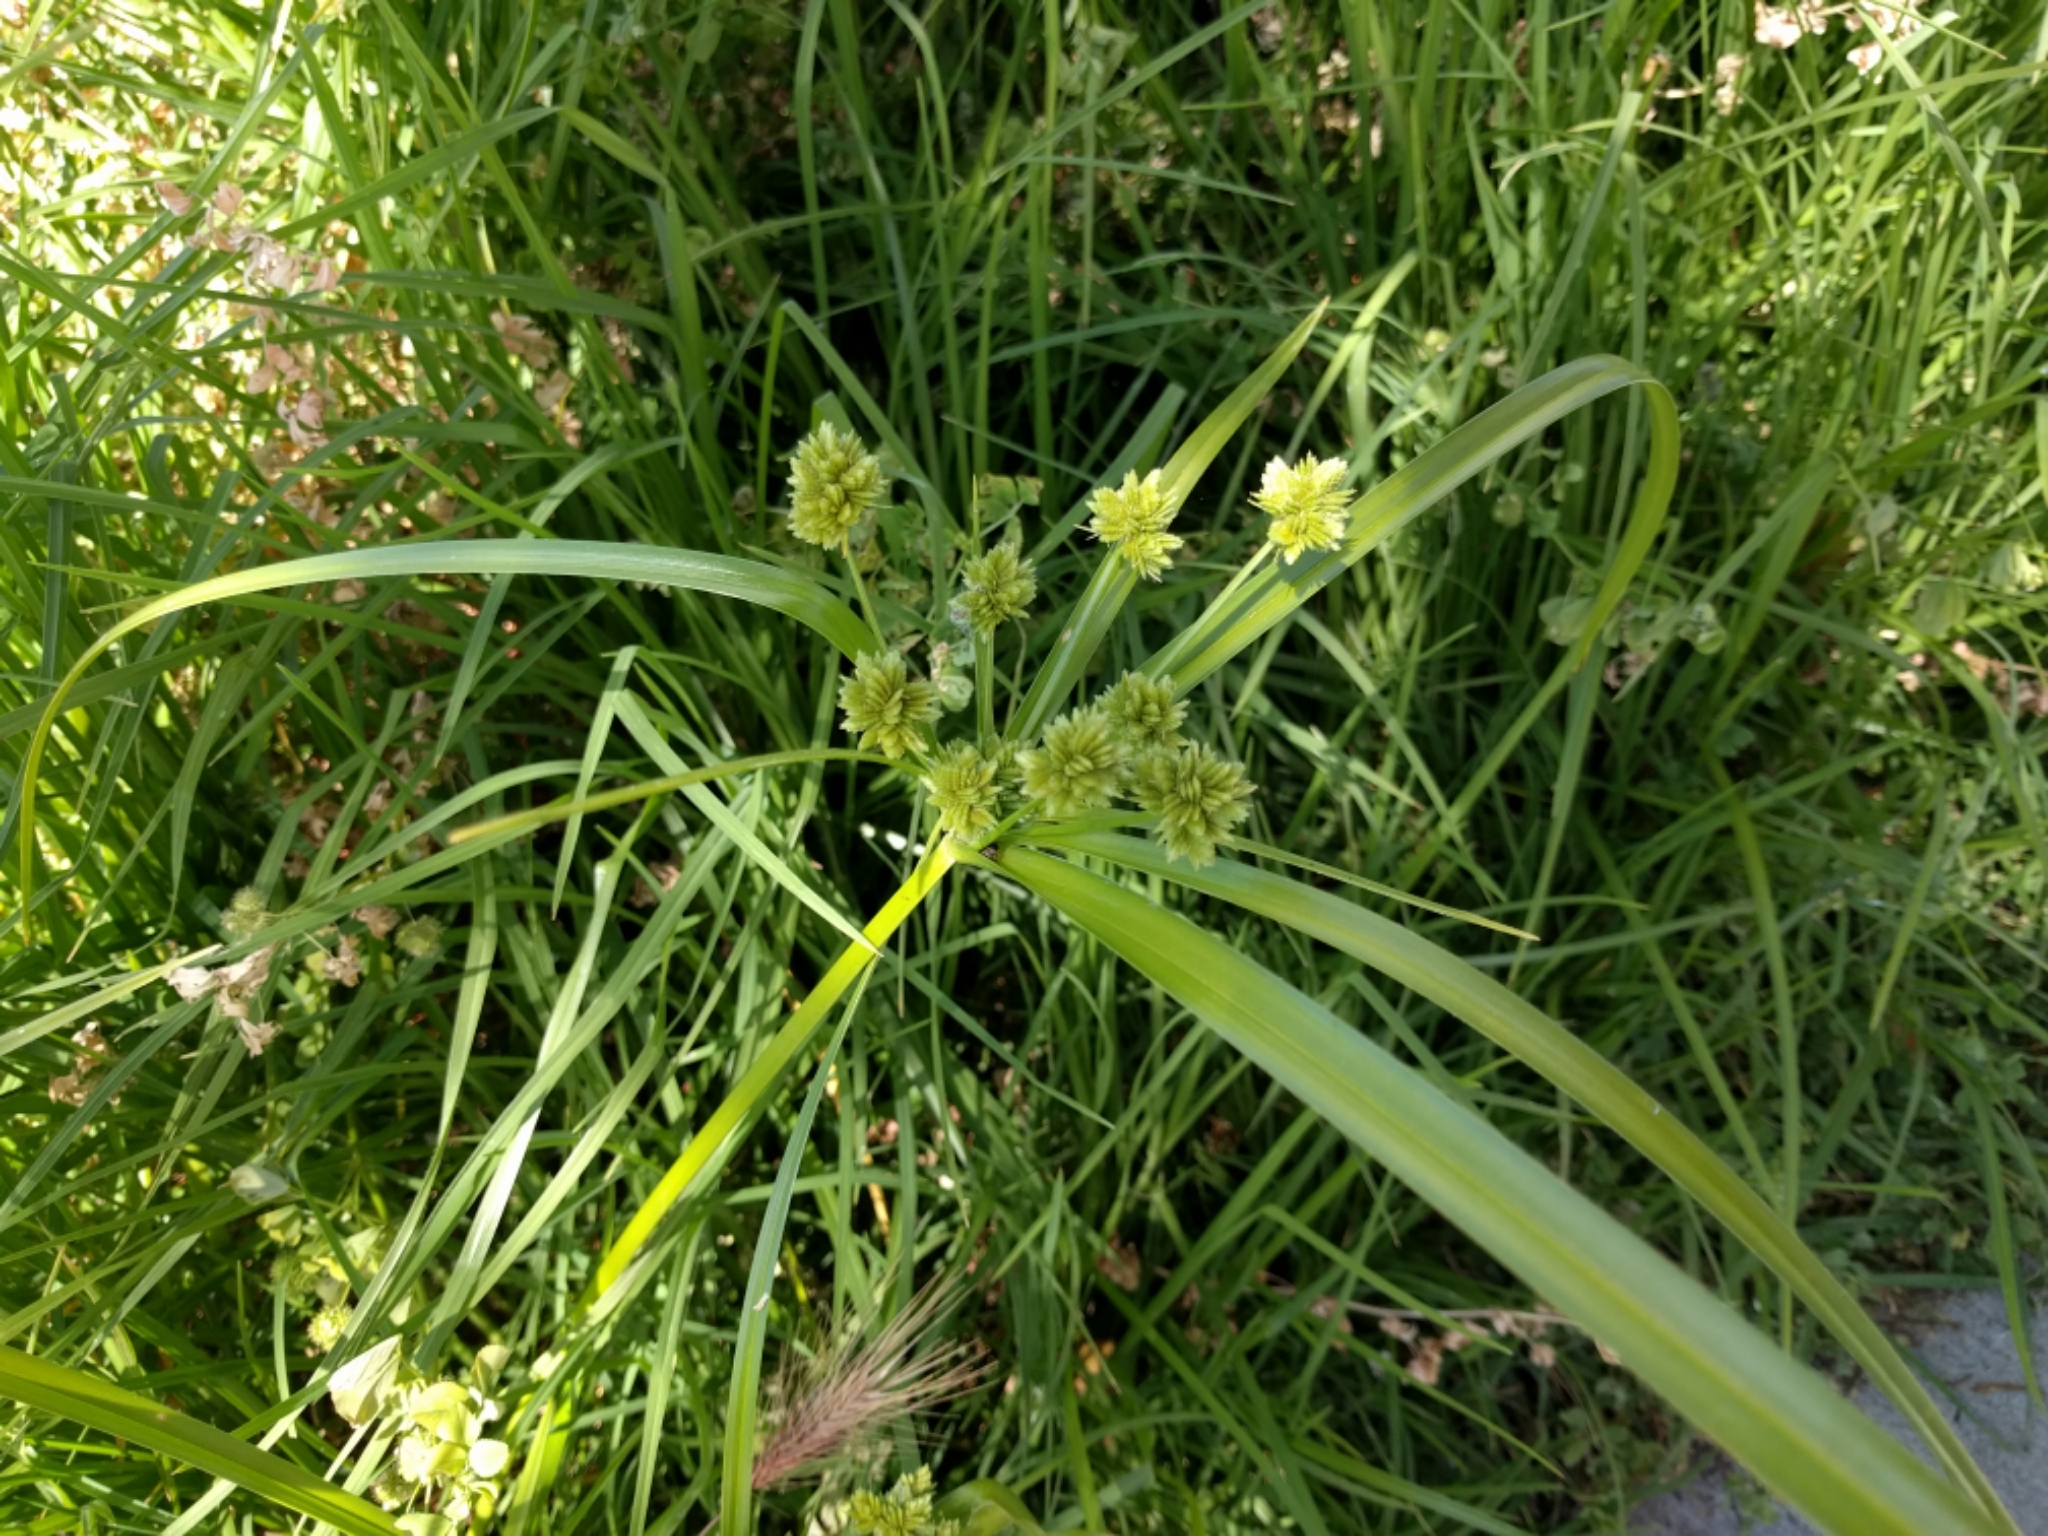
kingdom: Plantae
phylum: Tracheophyta
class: Liliopsida
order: Poales
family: Cyperaceae
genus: Cyperus
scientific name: Cyperus eragrostis
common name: Tall flatsedge
